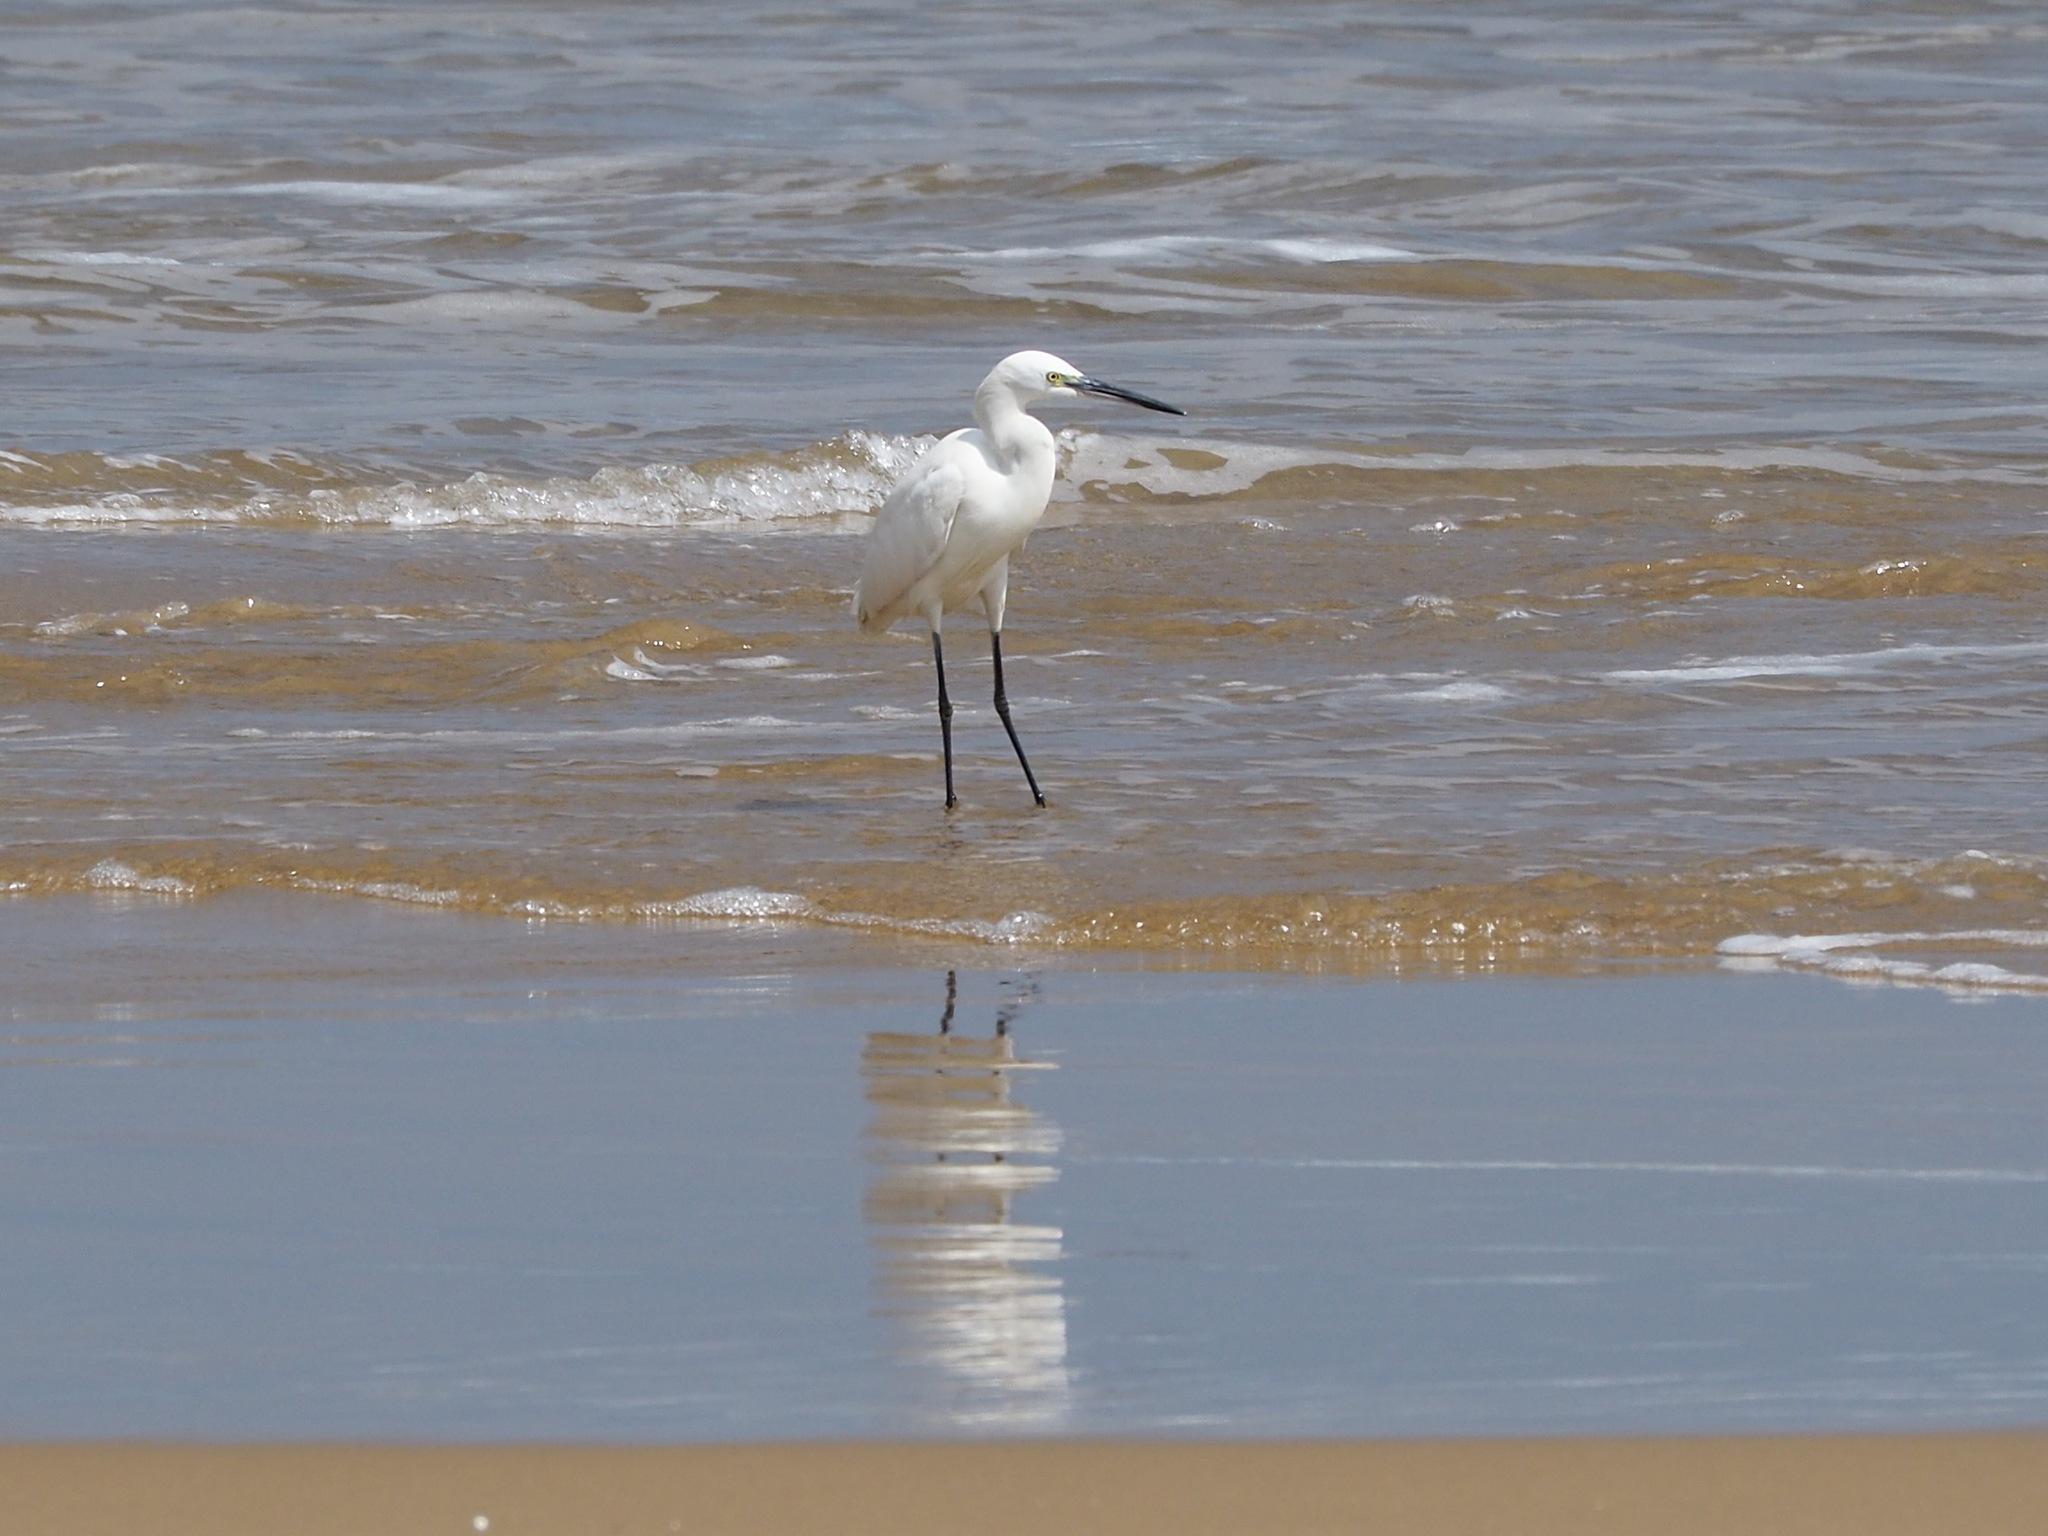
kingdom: Animalia
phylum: Chordata
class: Aves
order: Pelecaniformes
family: Ardeidae
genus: Egretta
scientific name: Egretta garzetta
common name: Little egret
